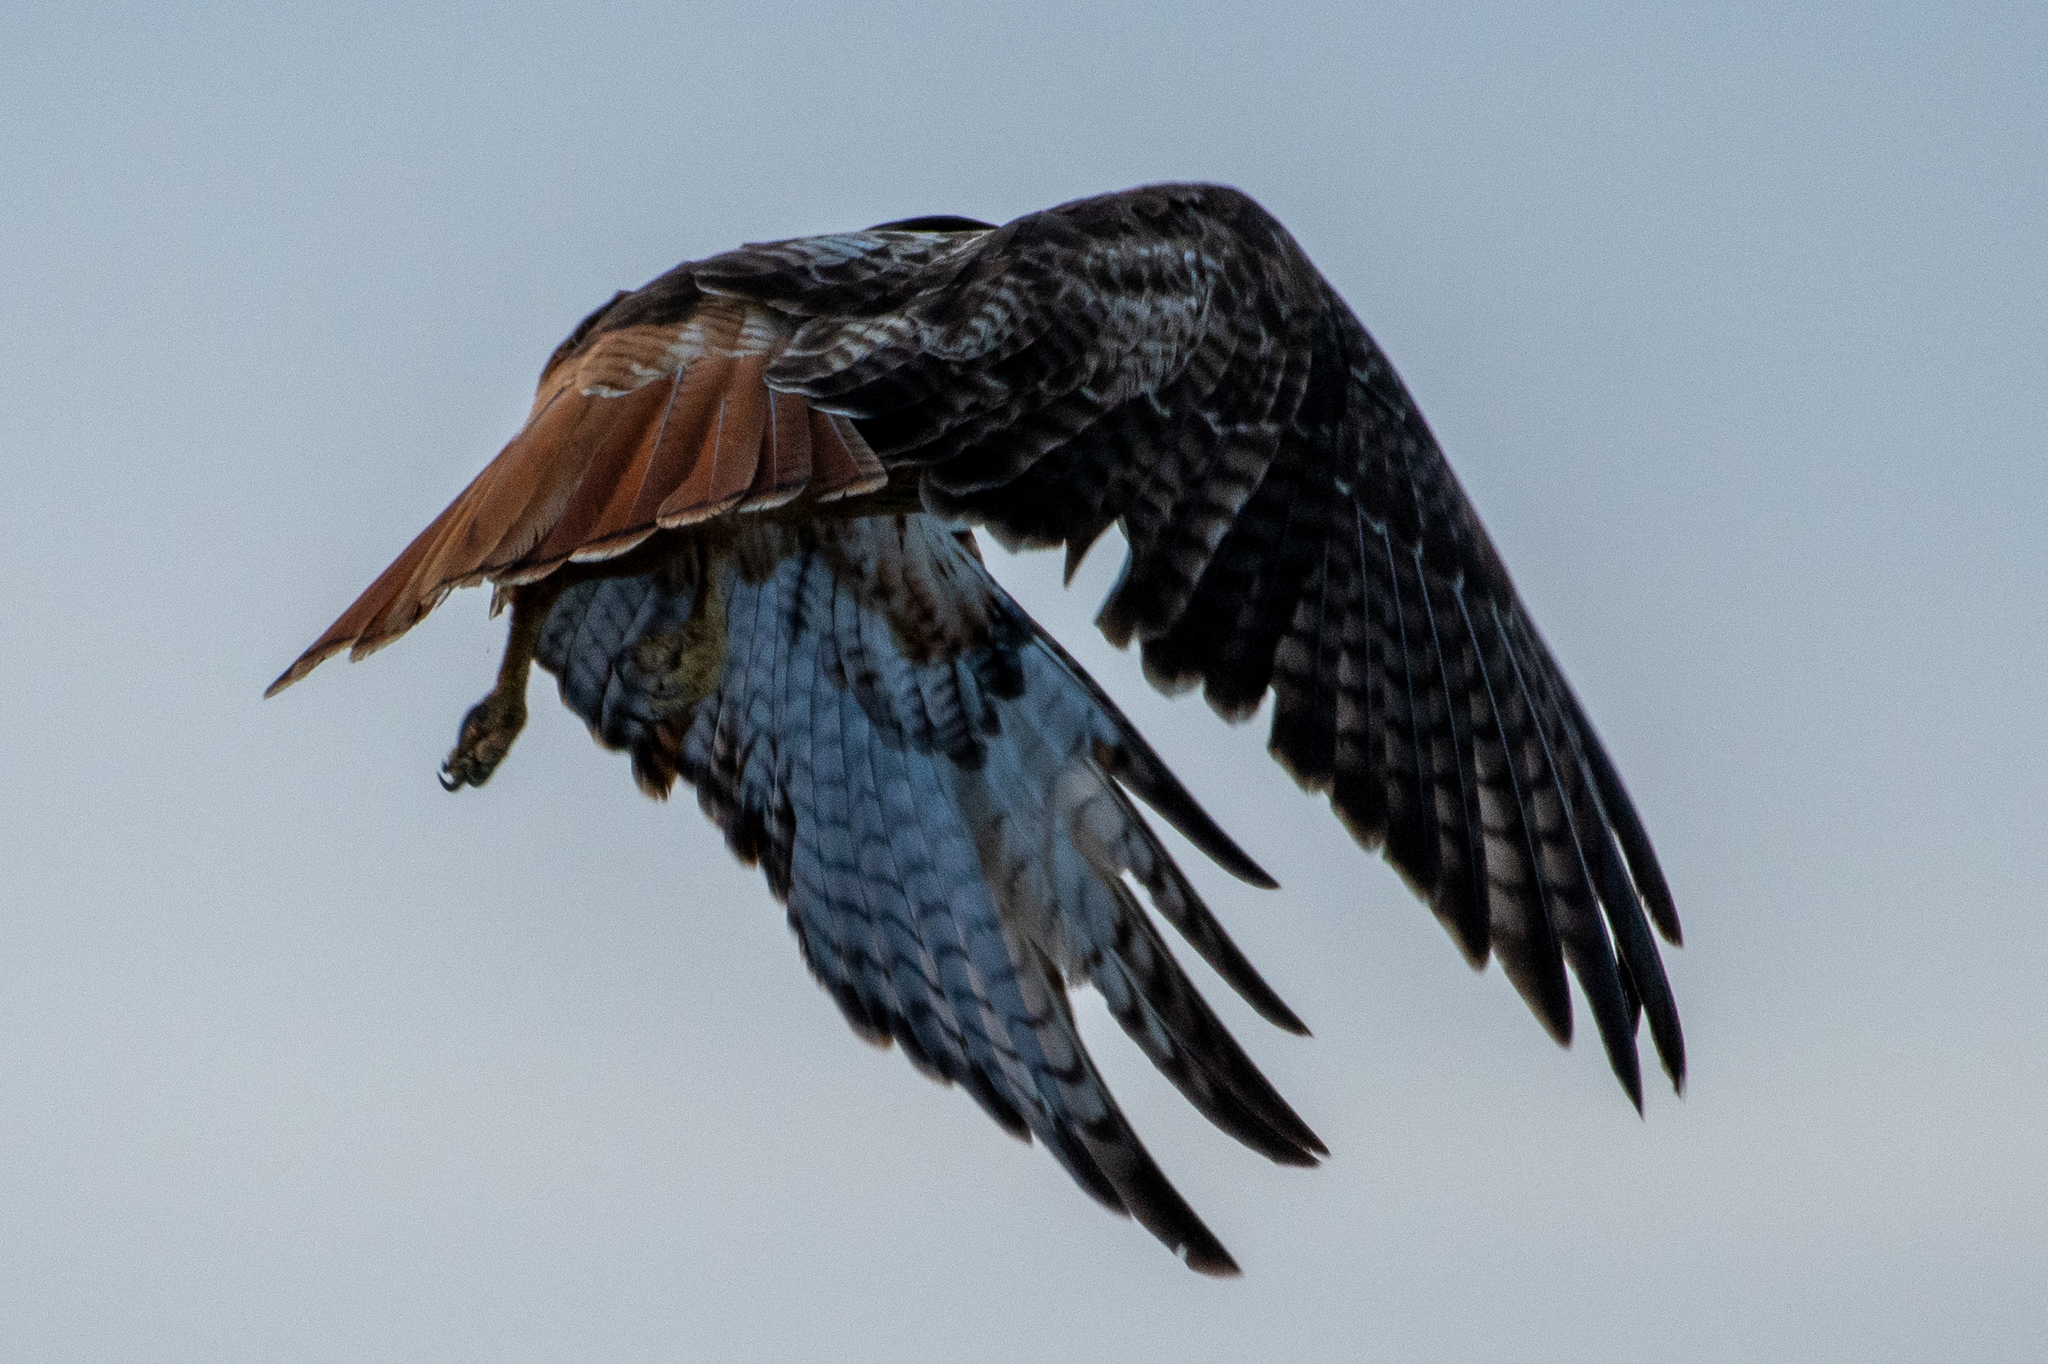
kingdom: Animalia
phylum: Chordata
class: Aves
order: Accipitriformes
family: Accipitridae
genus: Buteo
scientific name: Buteo jamaicensis
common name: Red-tailed hawk
